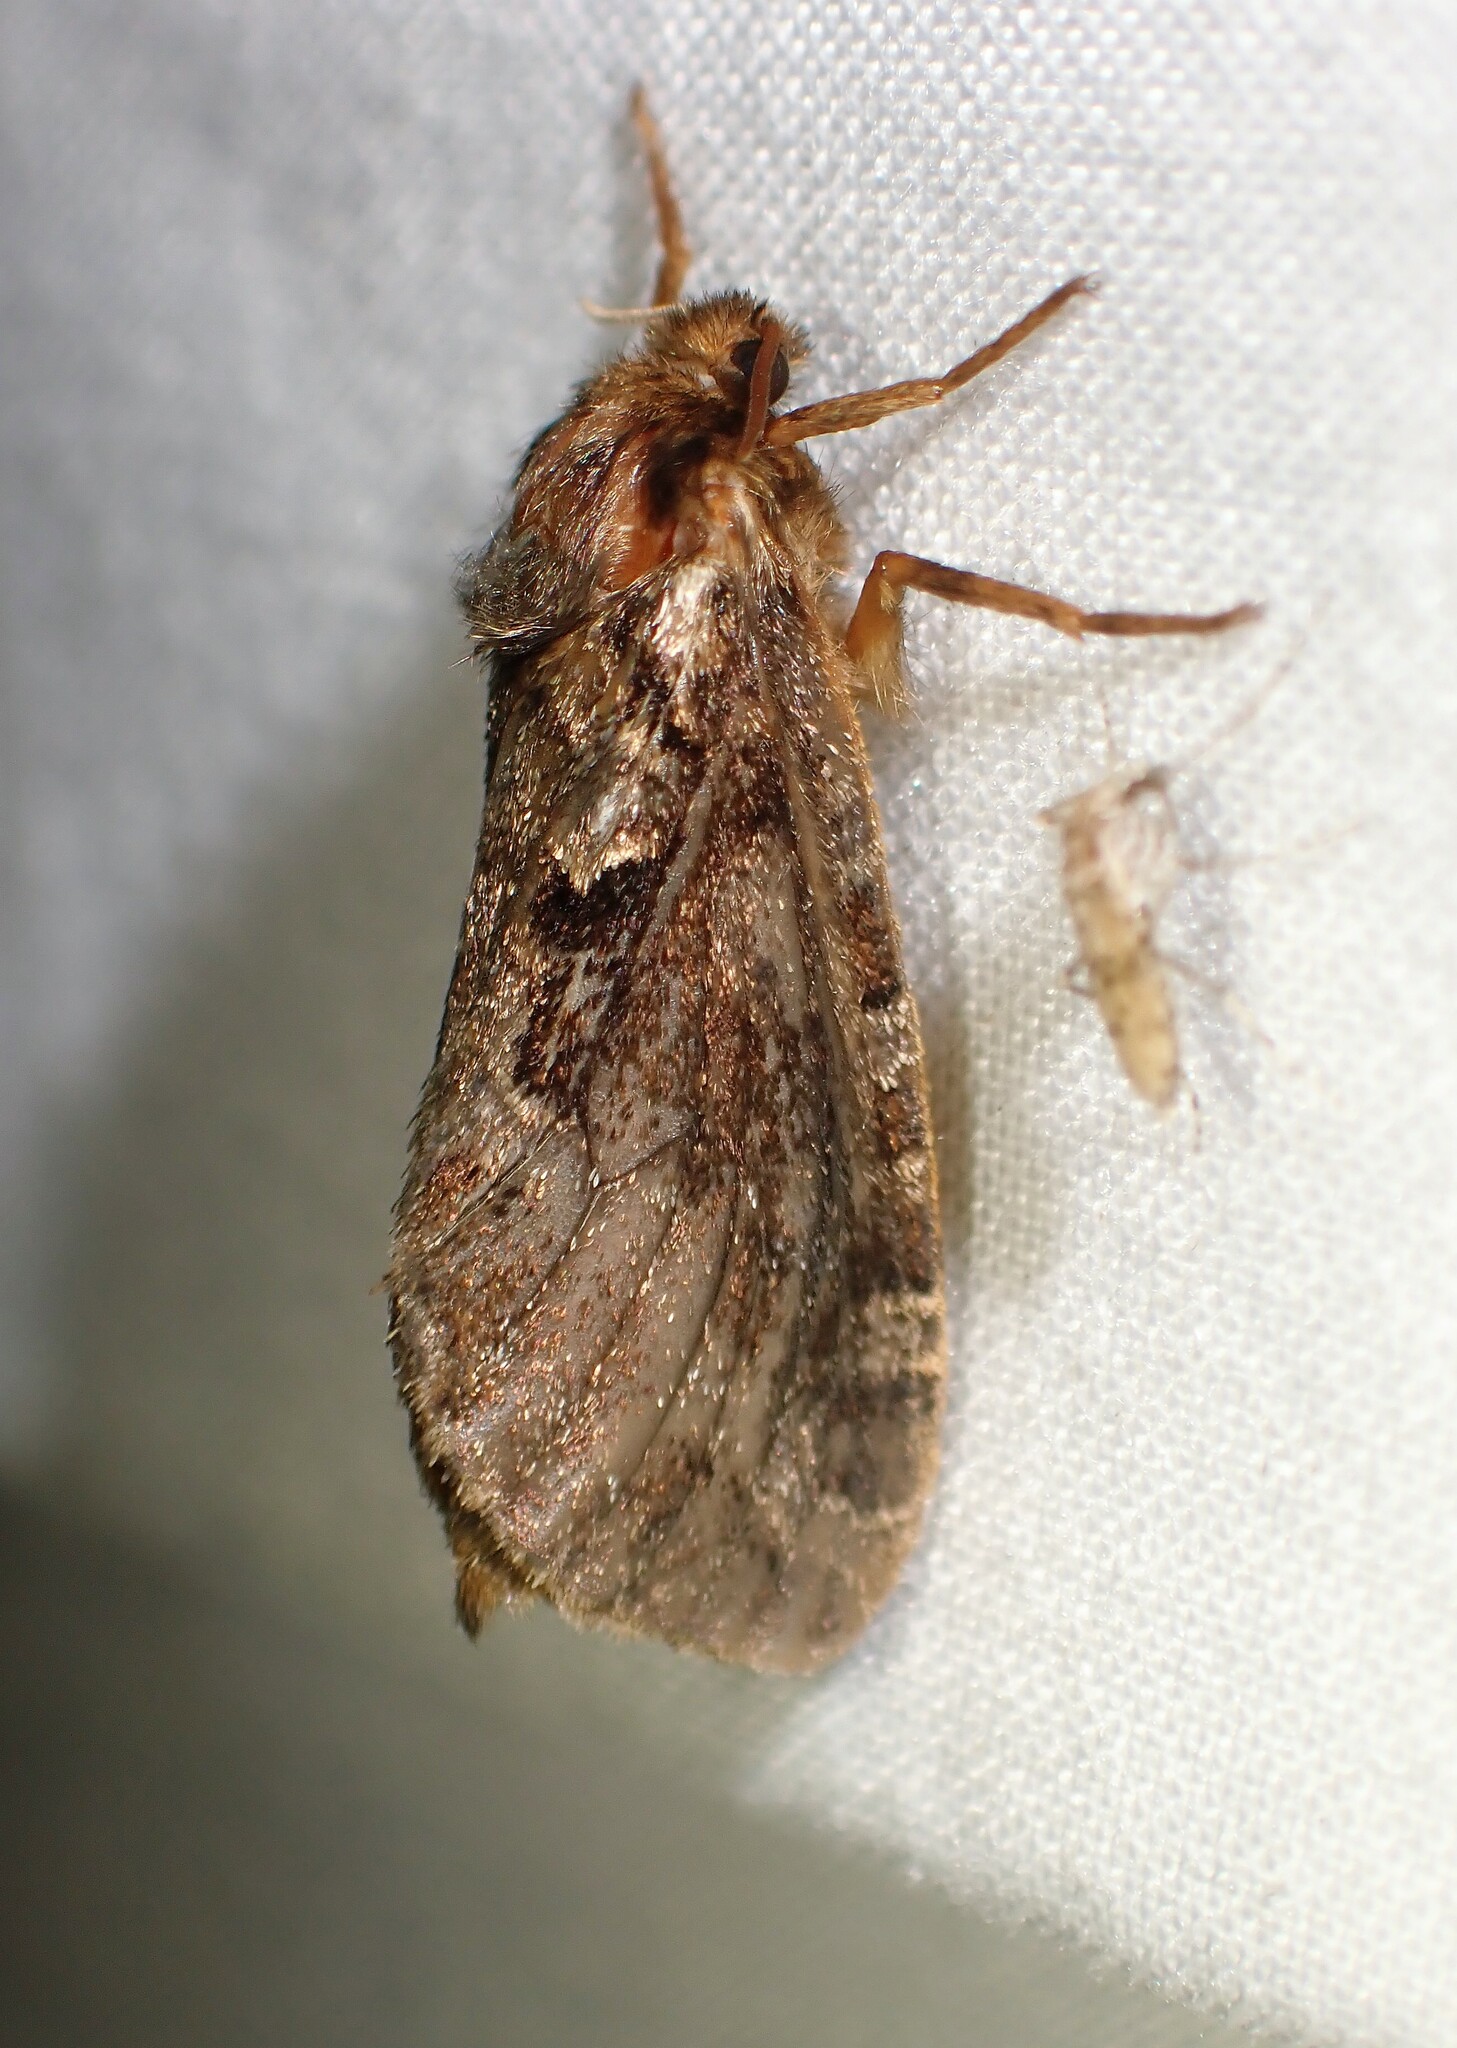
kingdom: Animalia
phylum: Arthropoda
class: Insecta
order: Lepidoptera
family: Hepialidae
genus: Korscheltellus
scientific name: Korscheltellus gracilis
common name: Conifer swift moth
